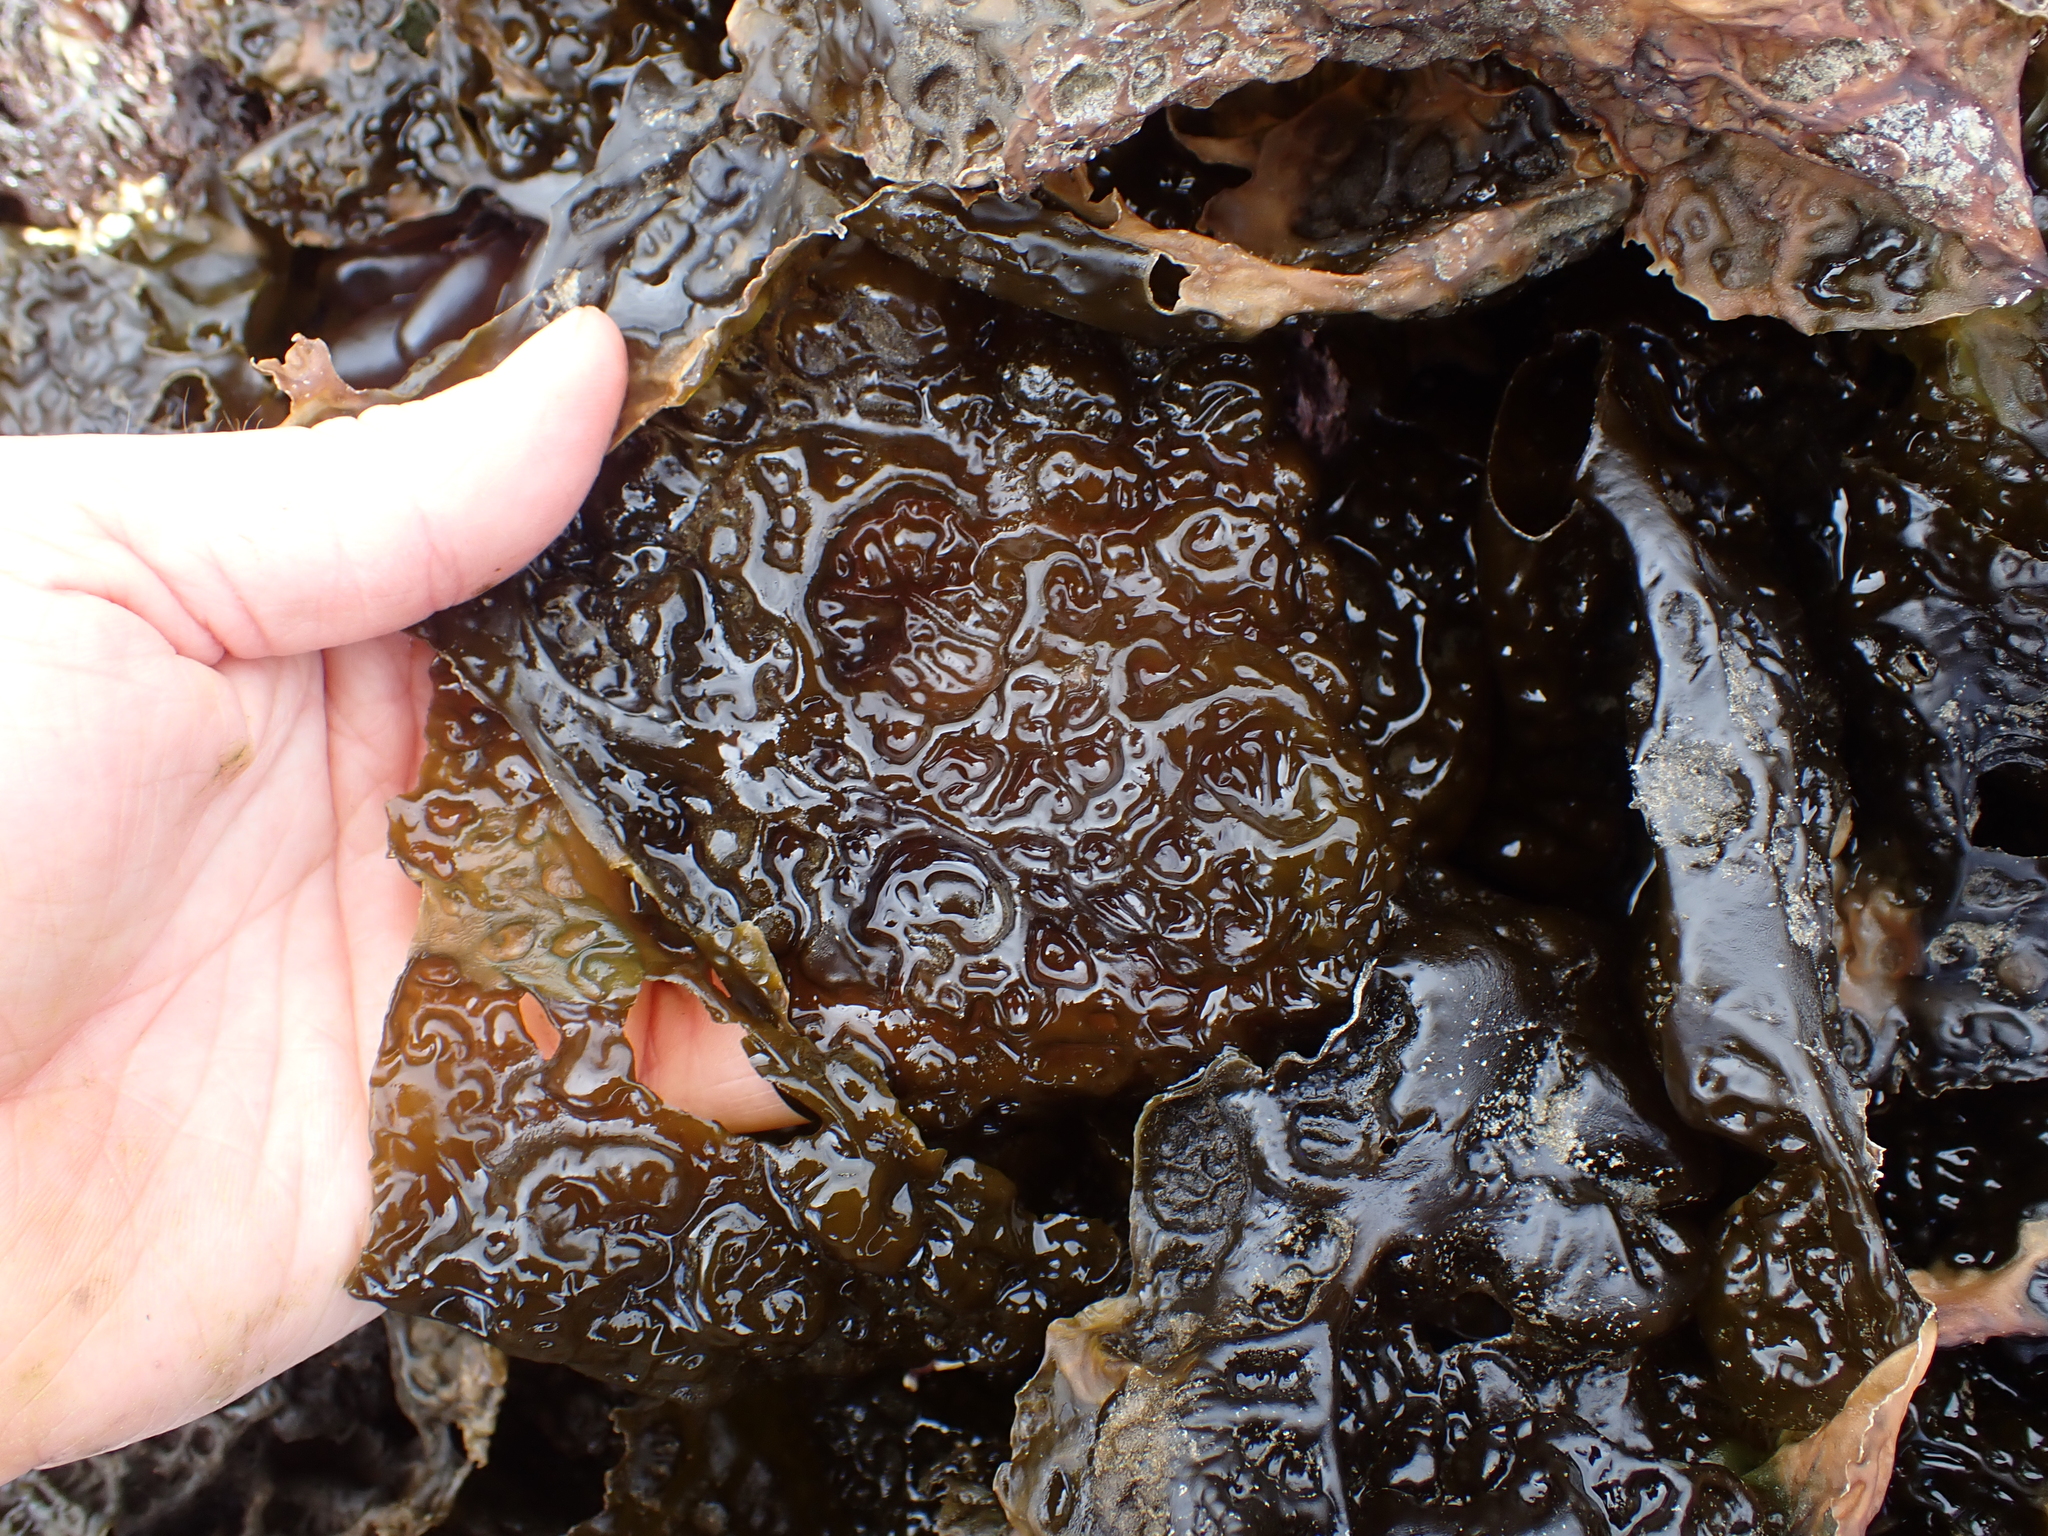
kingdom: Chromista
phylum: Ochrophyta
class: Phaeophyceae
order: Laminariales
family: Laminariaceae
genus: Hedophyllum
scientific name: Hedophyllum sessile
